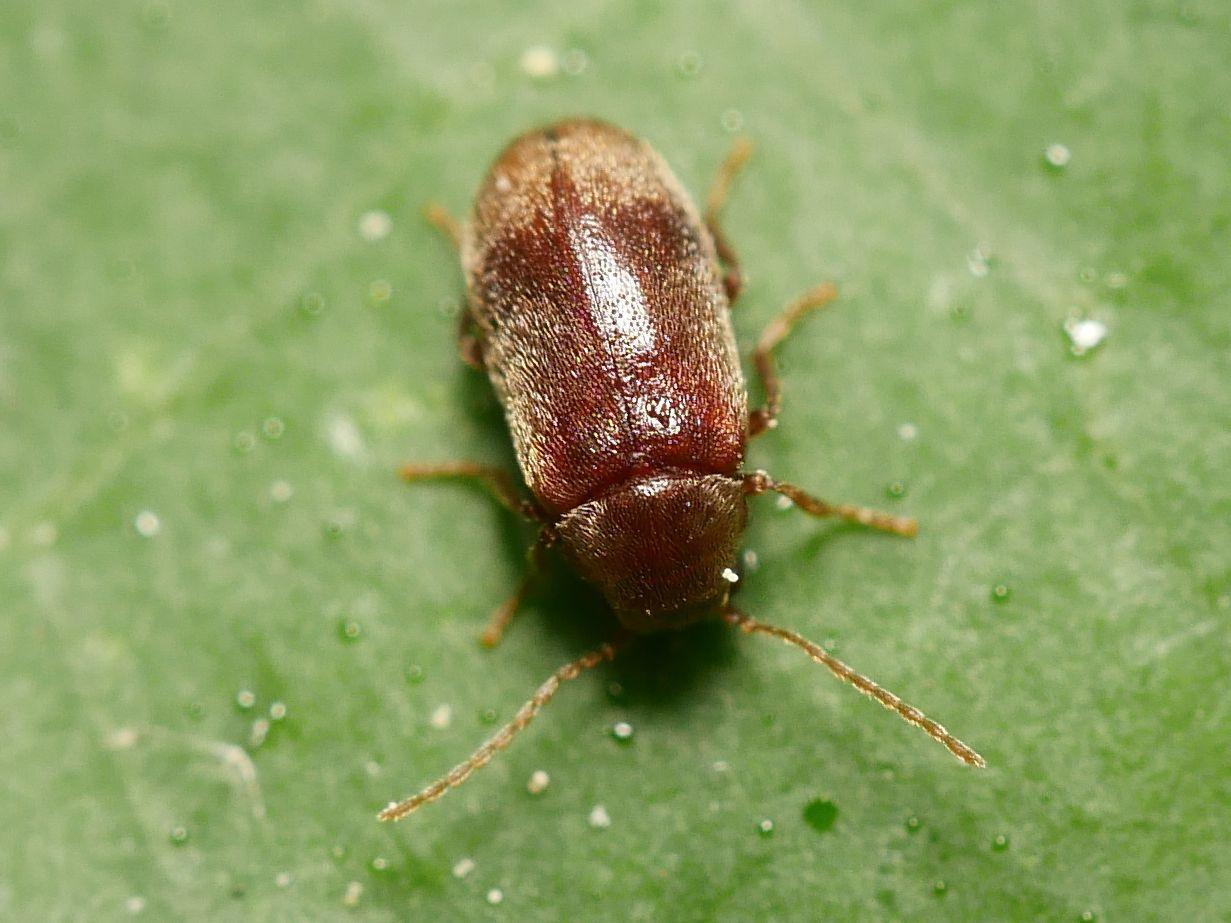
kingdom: Animalia
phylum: Arthropoda
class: Insecta
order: Coleoptera
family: Ptinidae
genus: Ochina
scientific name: Ochina ptinoides
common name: Ivy boring beetle
